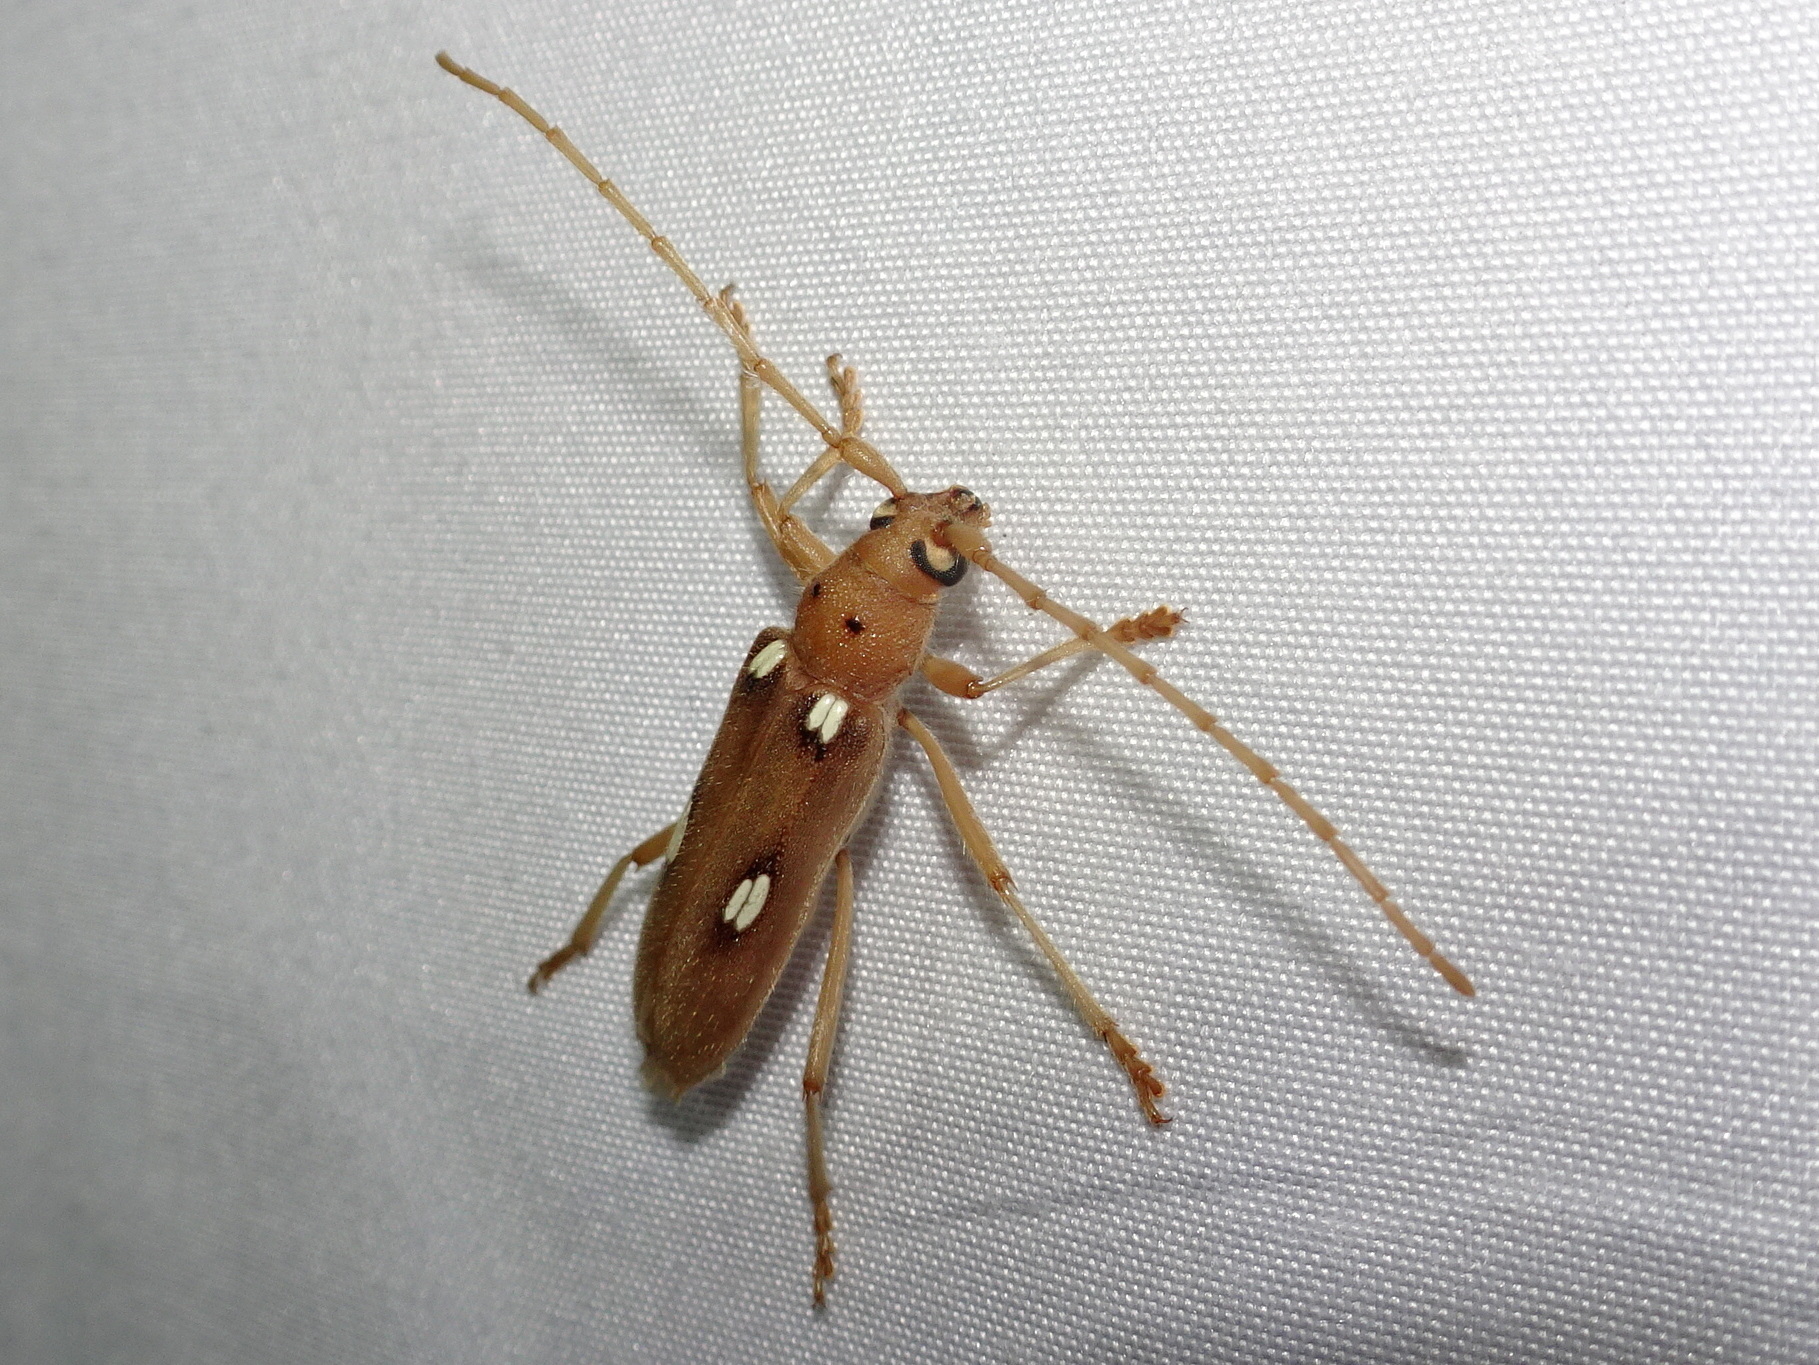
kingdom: Animalia
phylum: Arthropoda
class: Insecta
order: Coleoptera
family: Cerambycidae
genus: Eburia
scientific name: Eburia quadrigeminata
